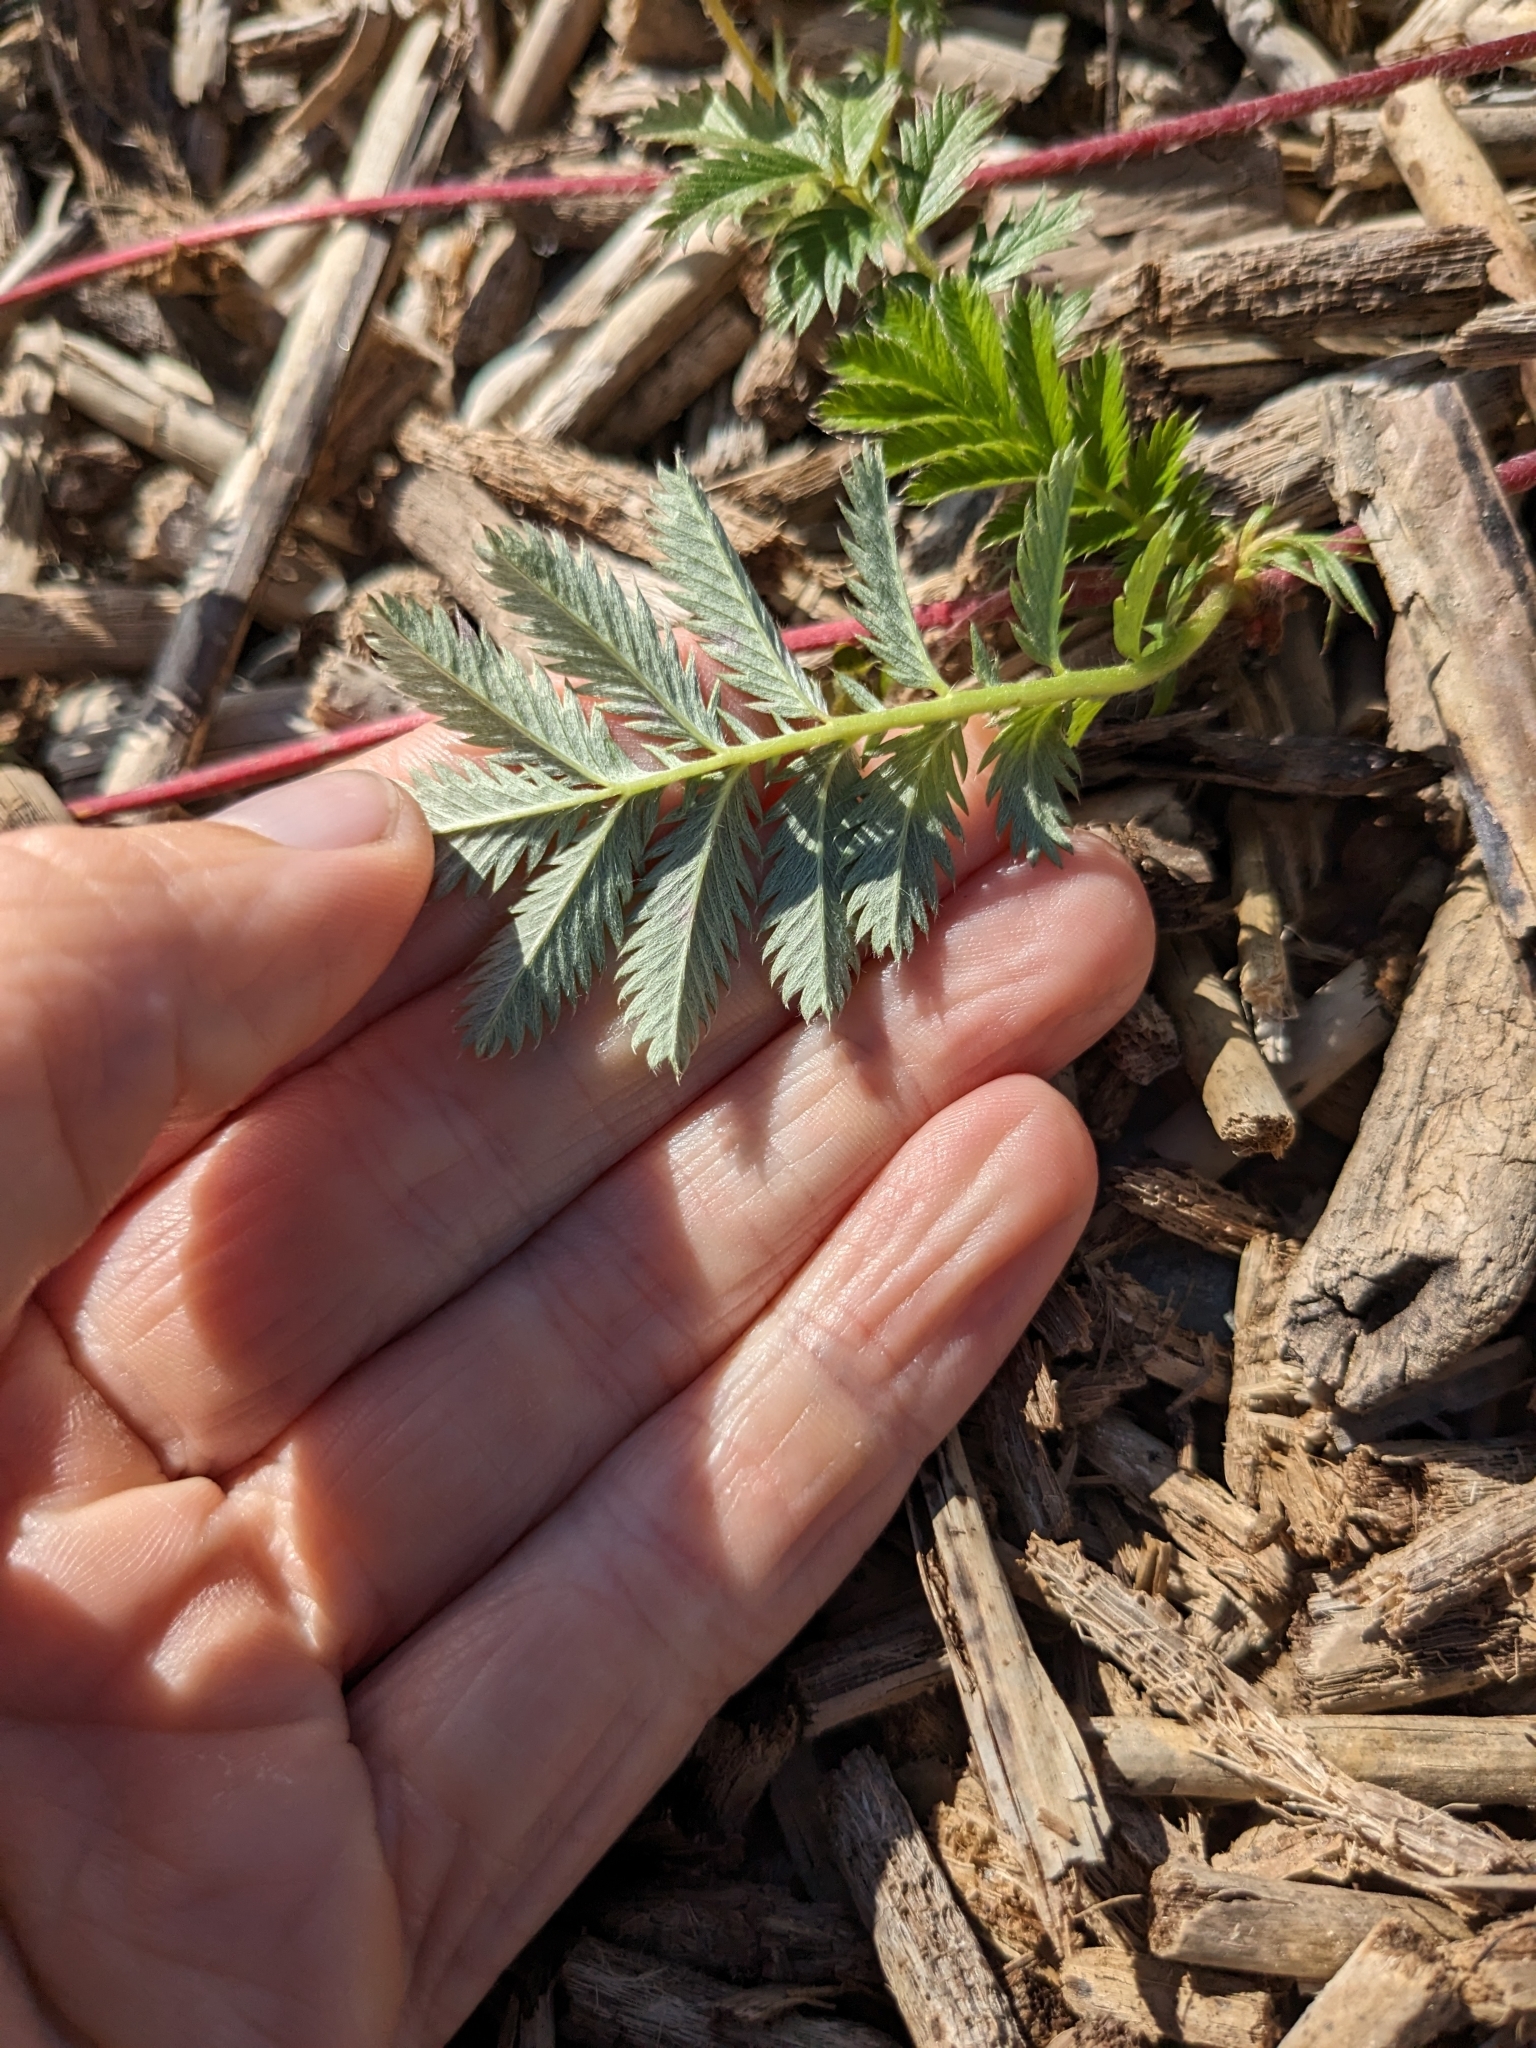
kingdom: Plantae
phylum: Tracheophyta
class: Magnoliopsida
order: Rosales
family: Rosaceae
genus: Argentina
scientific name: Argentina anserina
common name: Common silverweed
